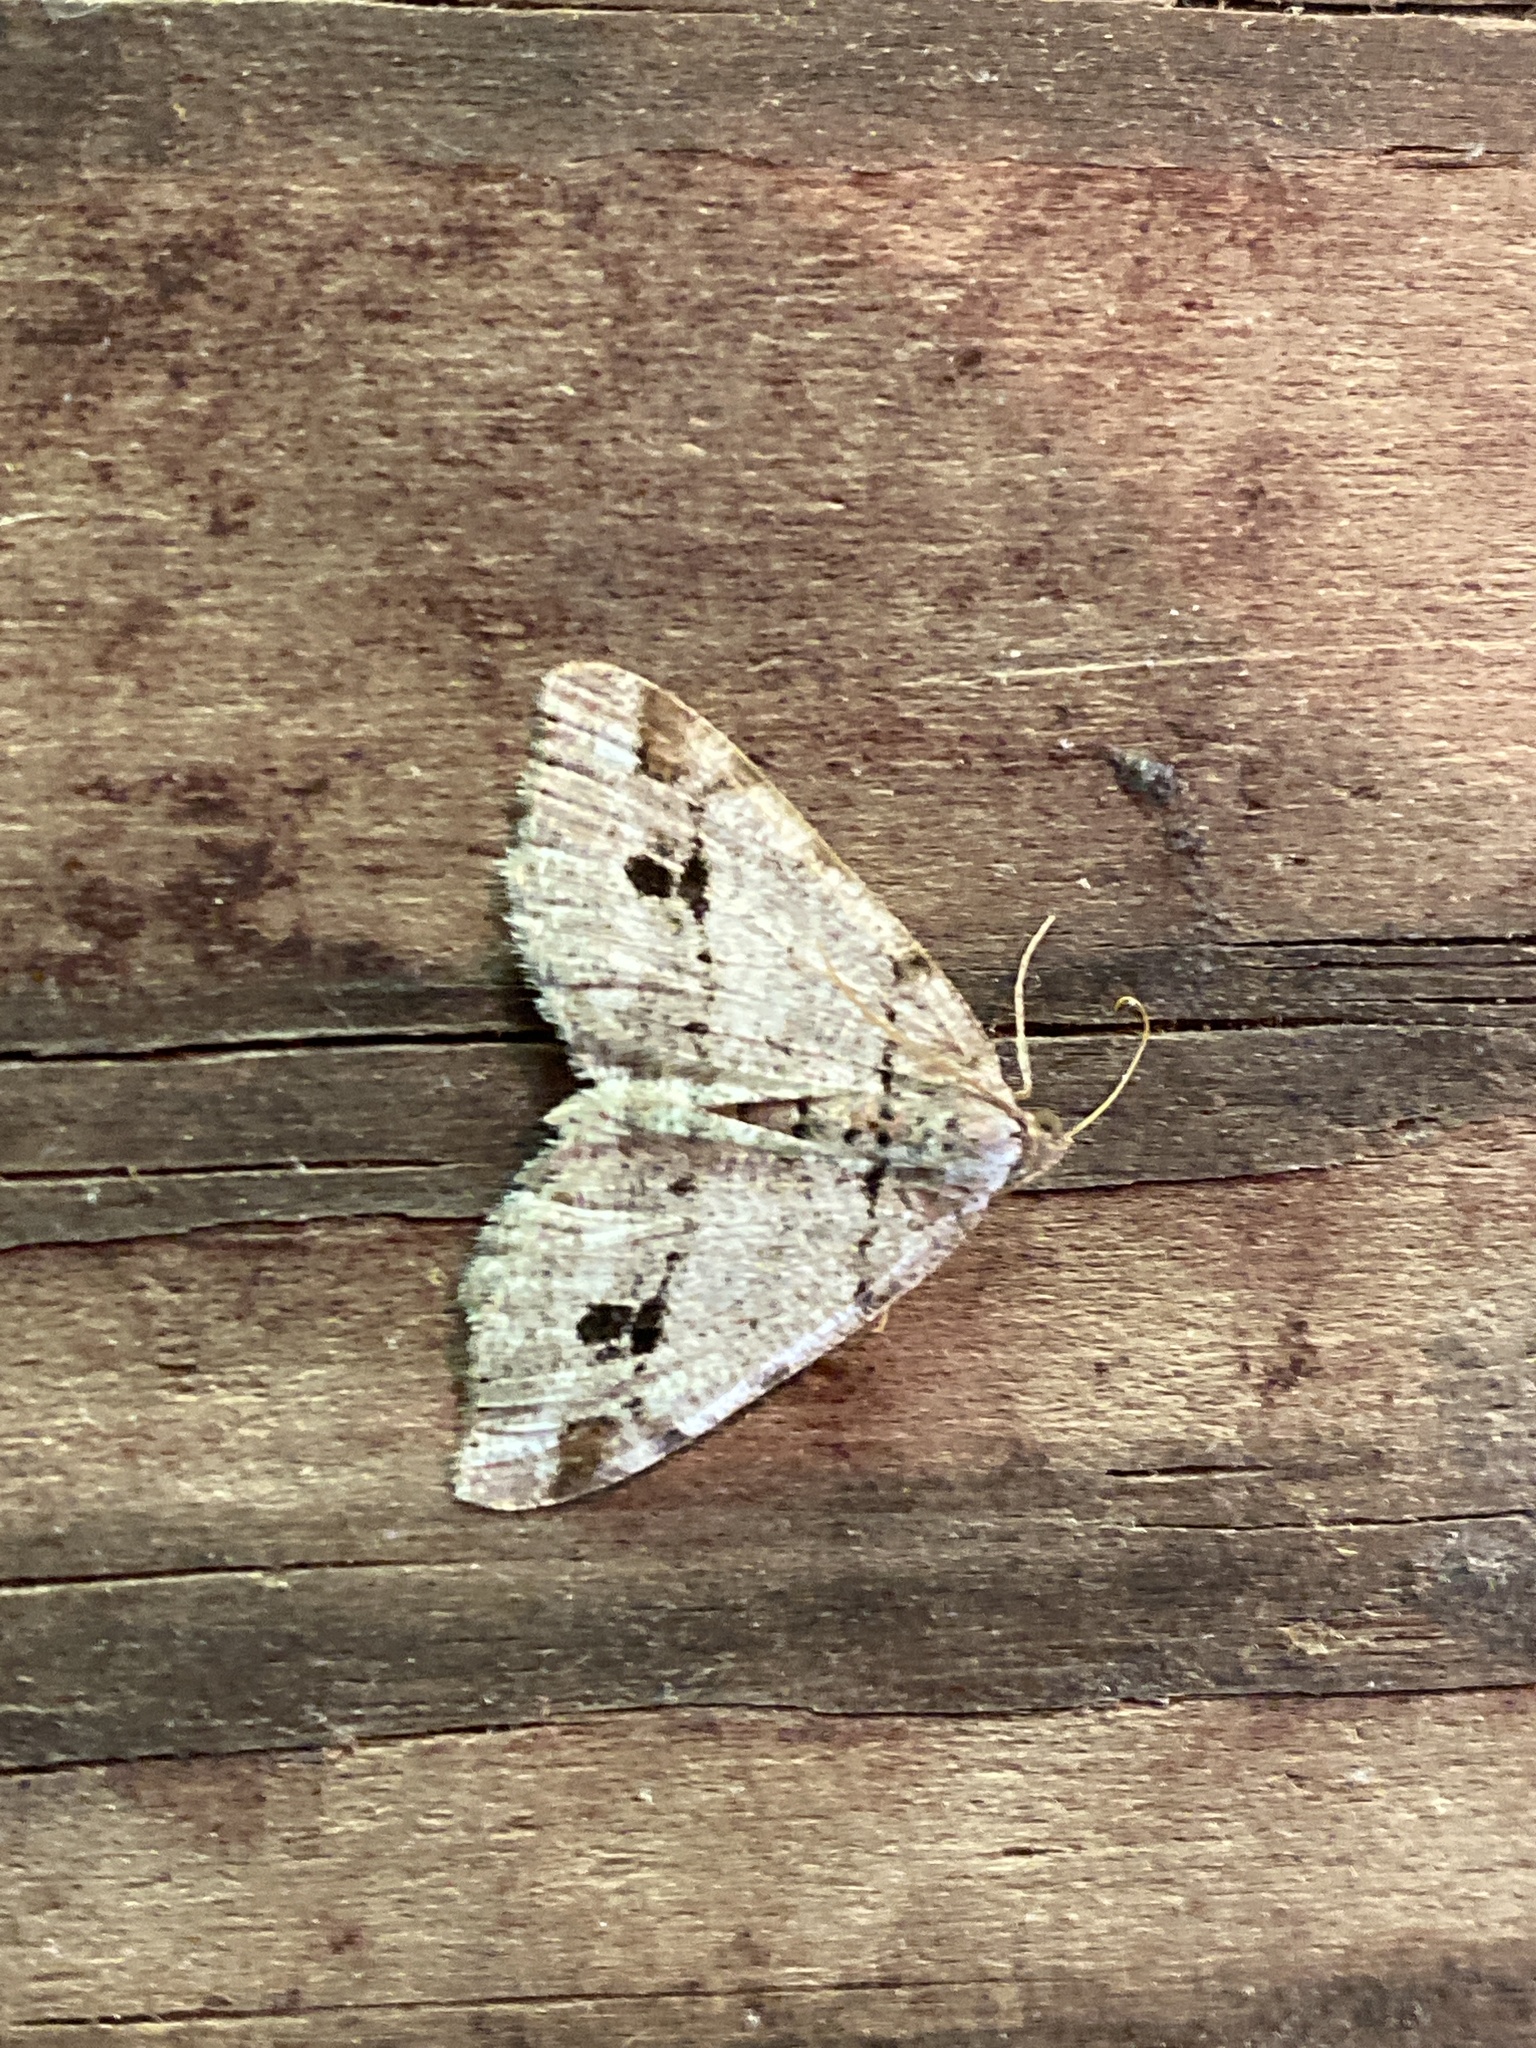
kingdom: Animalia
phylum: Arthropoda
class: Insecta
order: Lepidoptera
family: Geometridae
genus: Macaria
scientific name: Macaria fissinotata
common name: Hemlock angle
